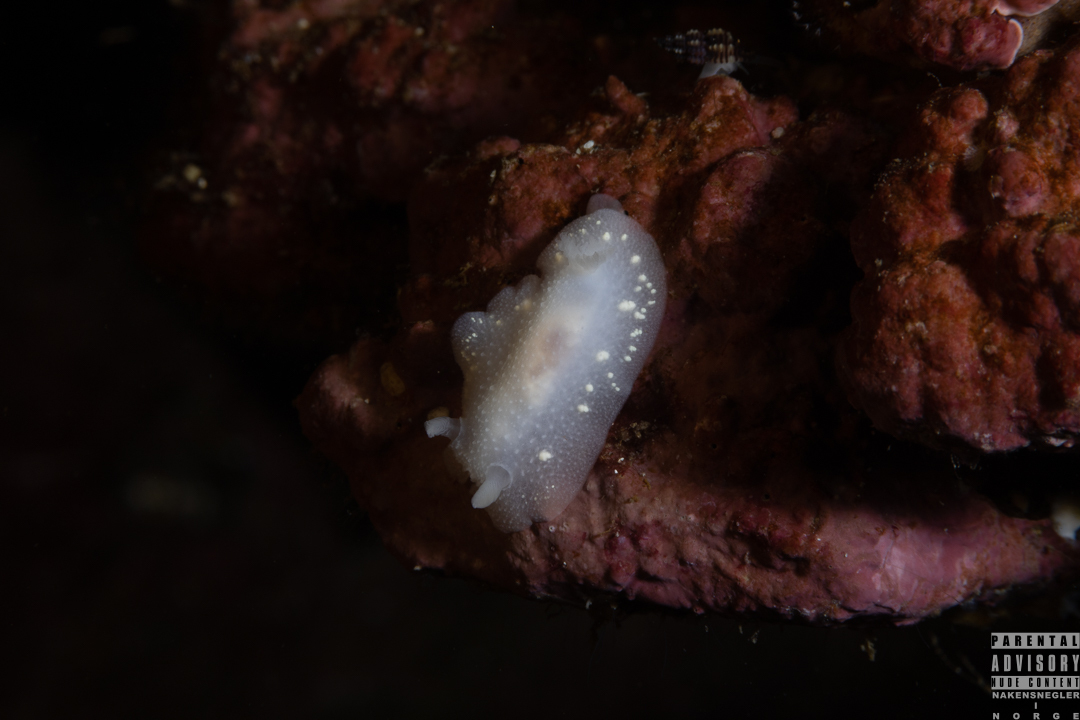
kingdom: Animalia
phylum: Mollusca
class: Gastropoda
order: Nudibranchia
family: Cadlinidae
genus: Cadlina
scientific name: Cadlina laevis
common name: White atlantic cadlina
